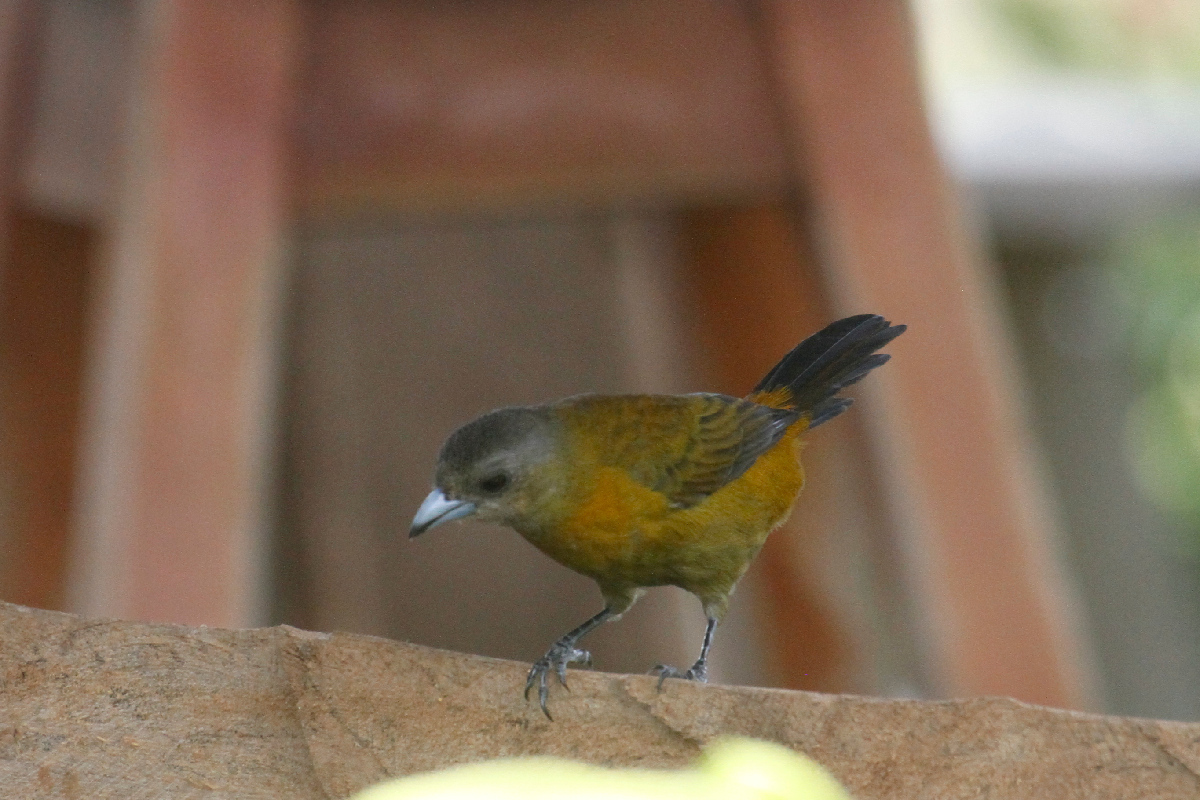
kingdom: Animalia
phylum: Chordata
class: Aves
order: Passeriformes
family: Thraupidae
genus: Ramphocelus
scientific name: Ramphocelus passerinii
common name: Passerini's tanager
